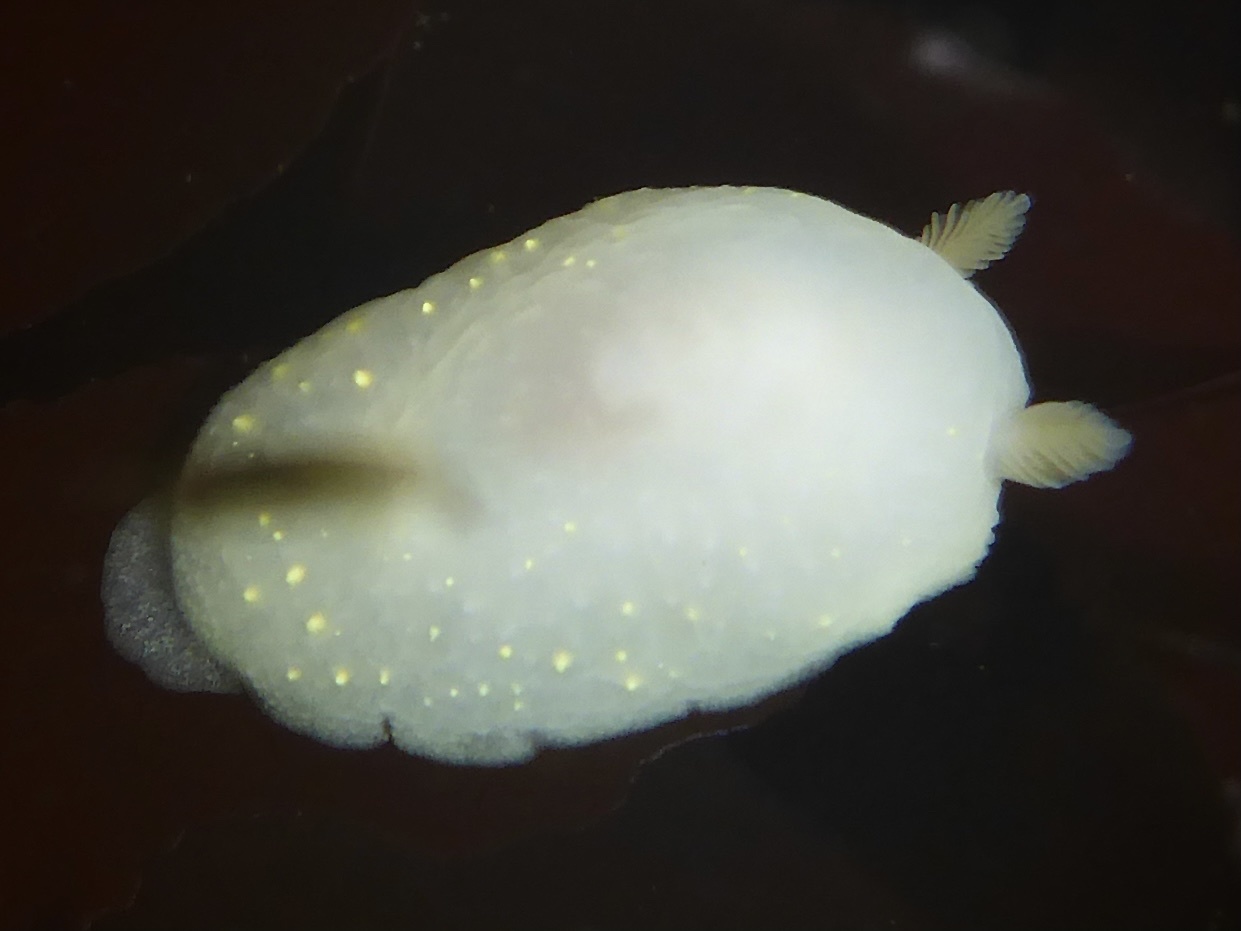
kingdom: Animalia
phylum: Mollusca
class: Gastropoda
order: Nudibranchia
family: Cadlinidae
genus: Cadlina
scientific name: Cadlina modesta
